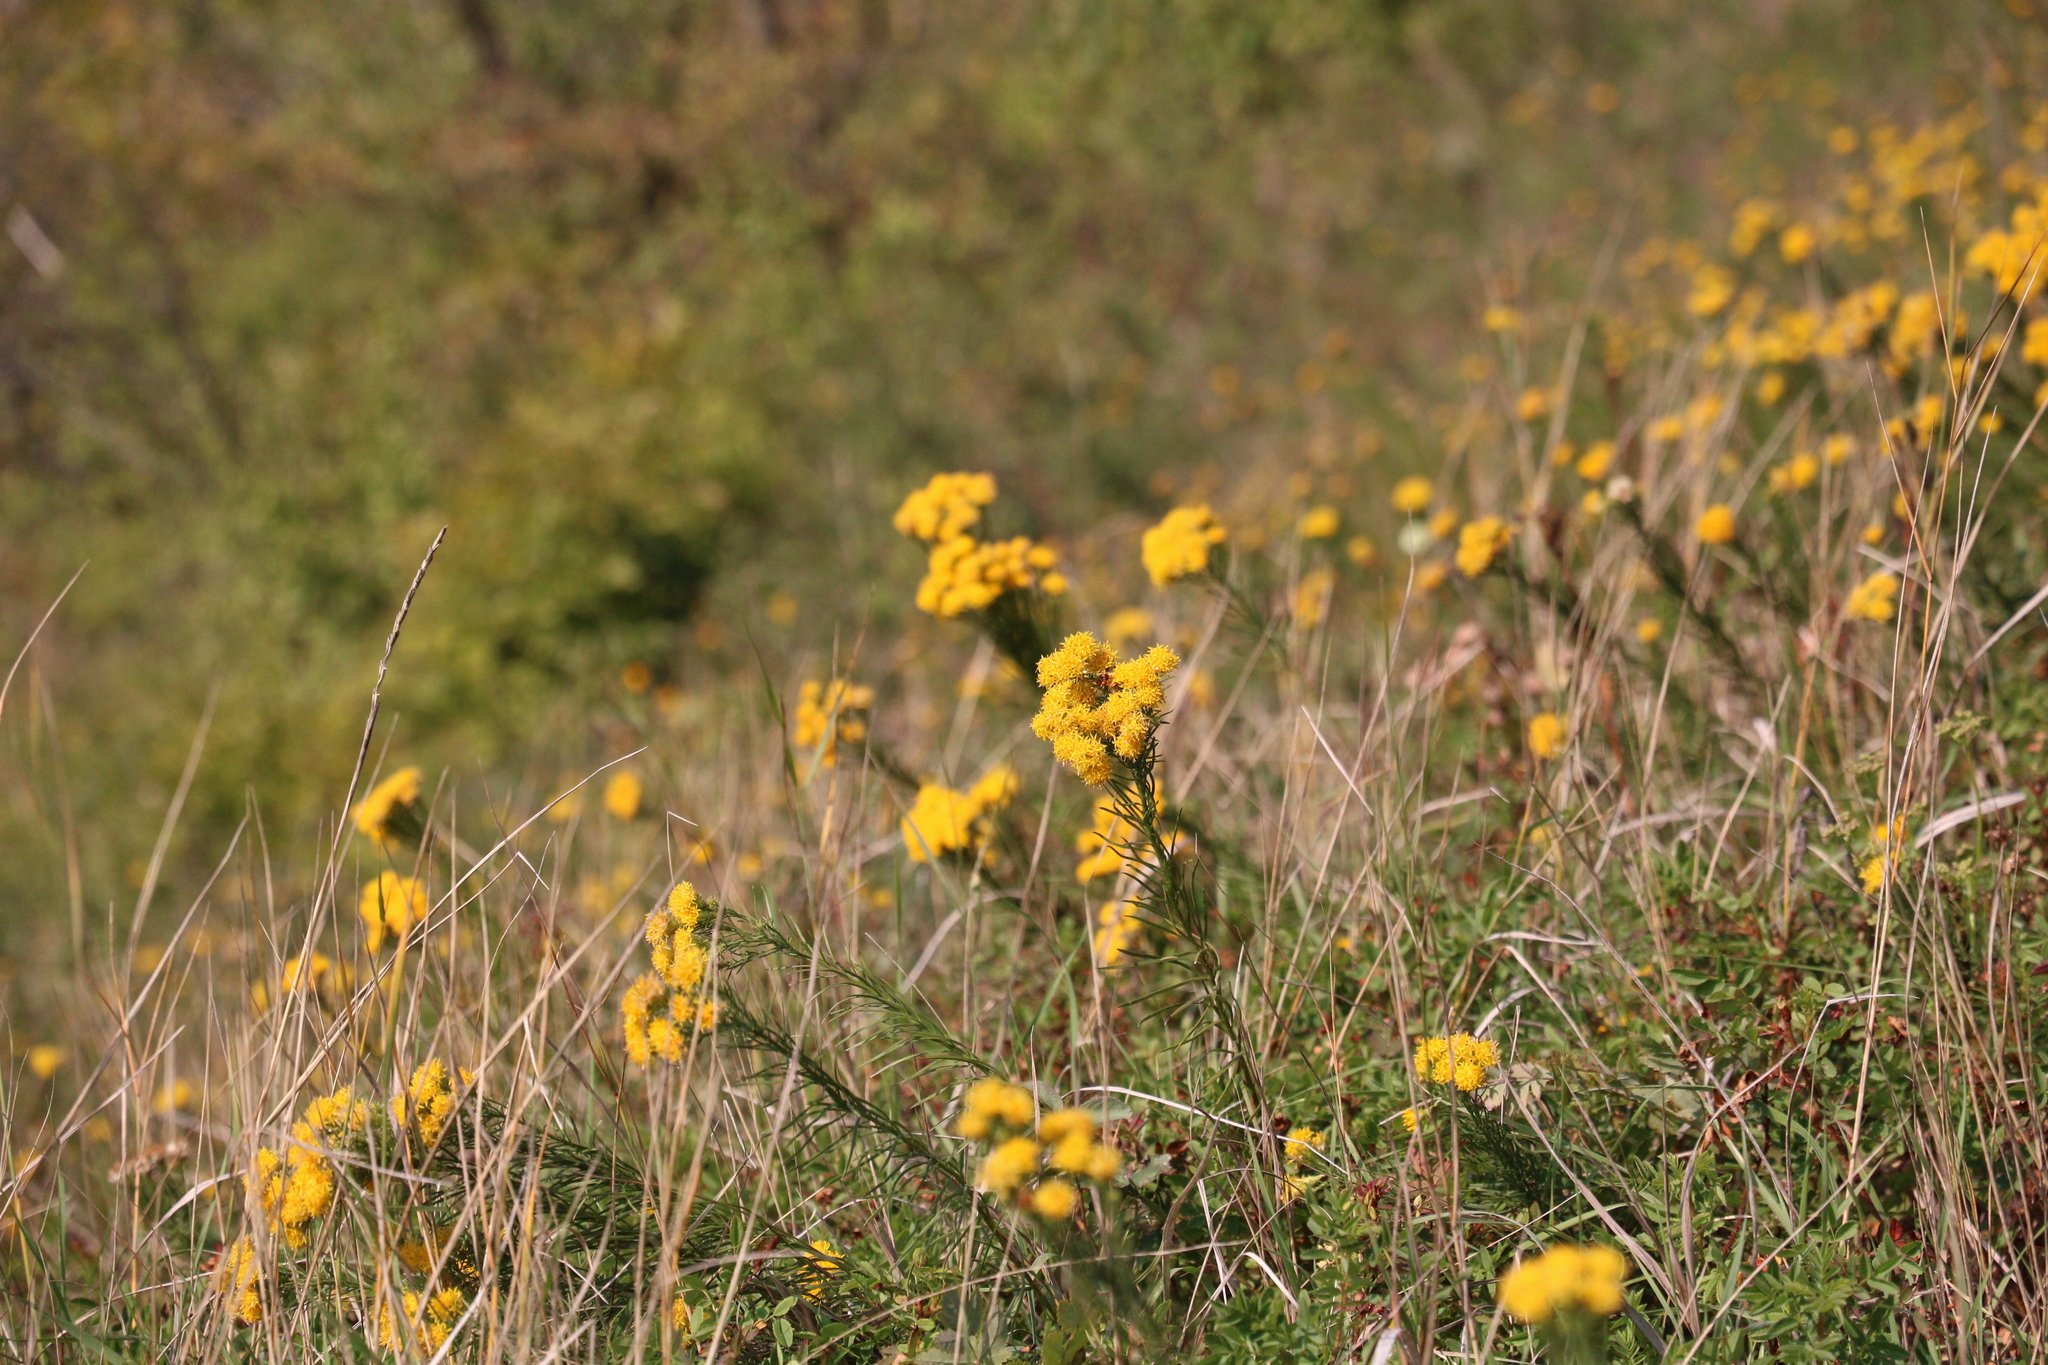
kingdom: Plantae
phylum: Tracheophyta
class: Magnoliopsida
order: Asterales
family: Asteraceae
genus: Galatella
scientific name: Galatella linosyris
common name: Goldilocks aster
